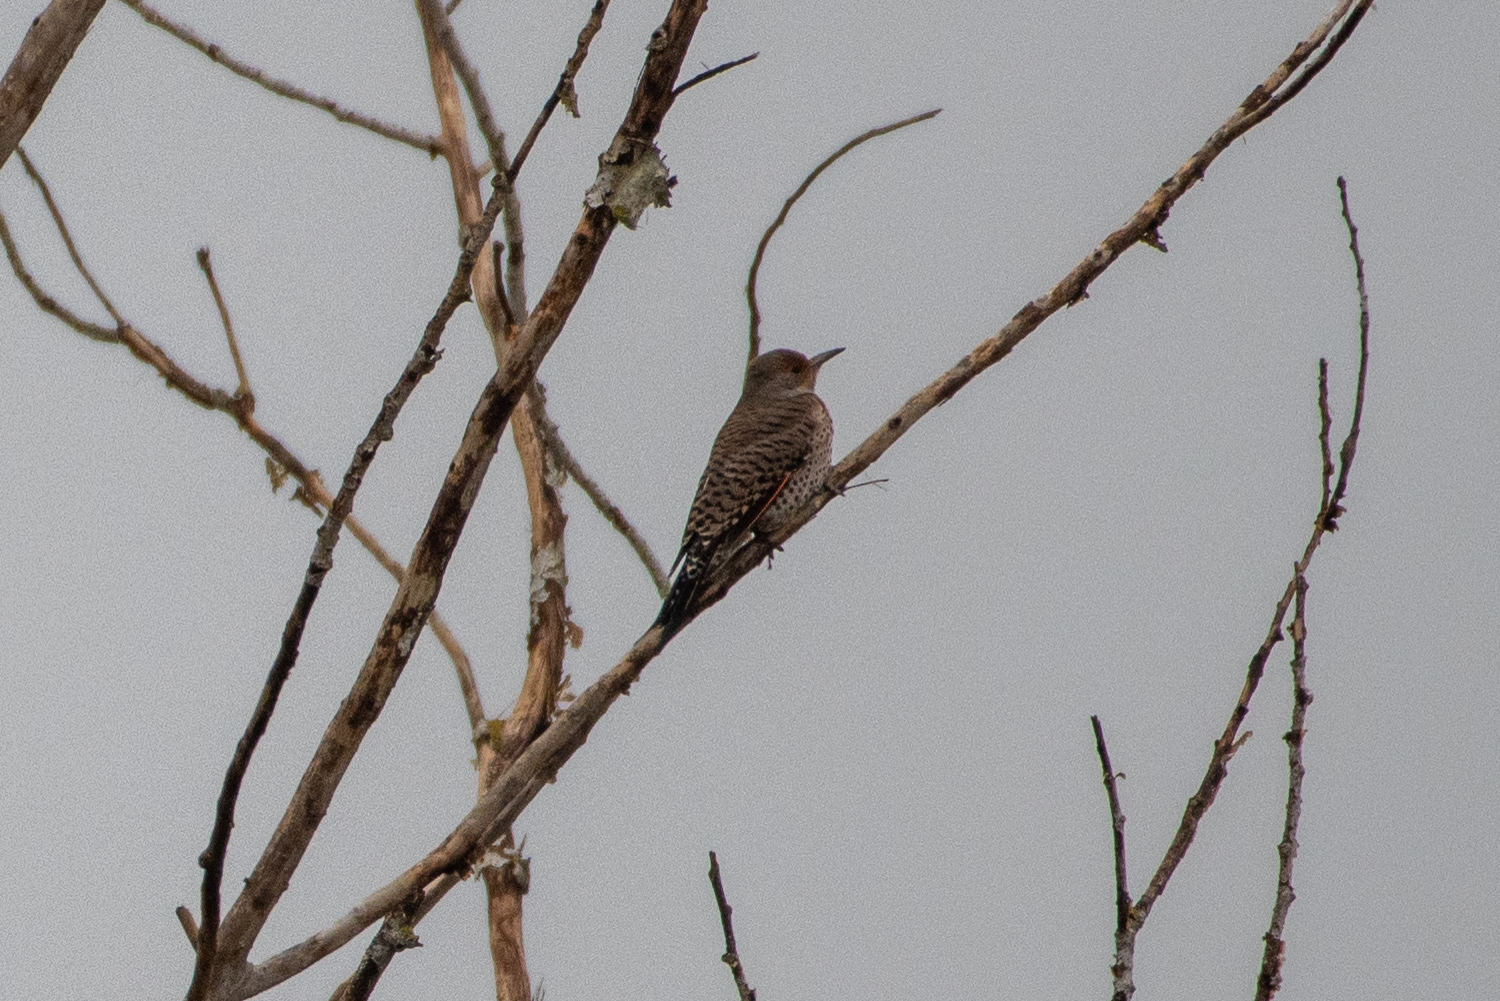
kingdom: Animalia
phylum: Chordata
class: Aves
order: Piciformes
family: Picidae
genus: Colaptes
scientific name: Colaptes auratus
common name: Northern flicker
